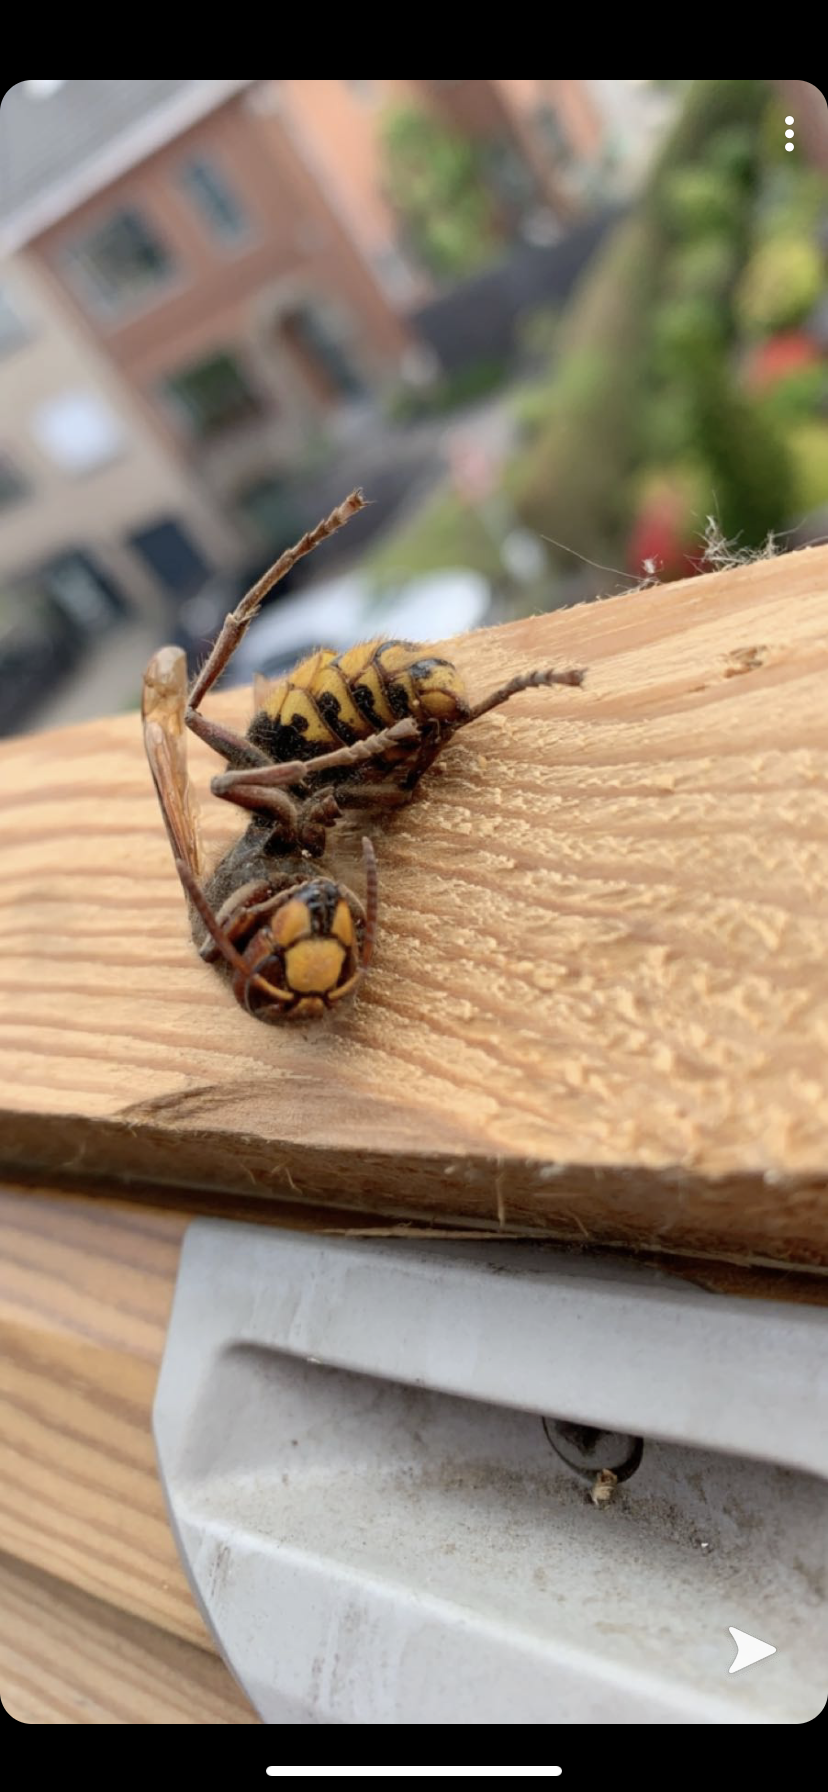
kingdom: Animalia
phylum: Arthropoda
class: Insecta
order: Hymenoptera
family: Vespidae
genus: Vespa
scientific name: Vespa crabro
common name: Hornet
